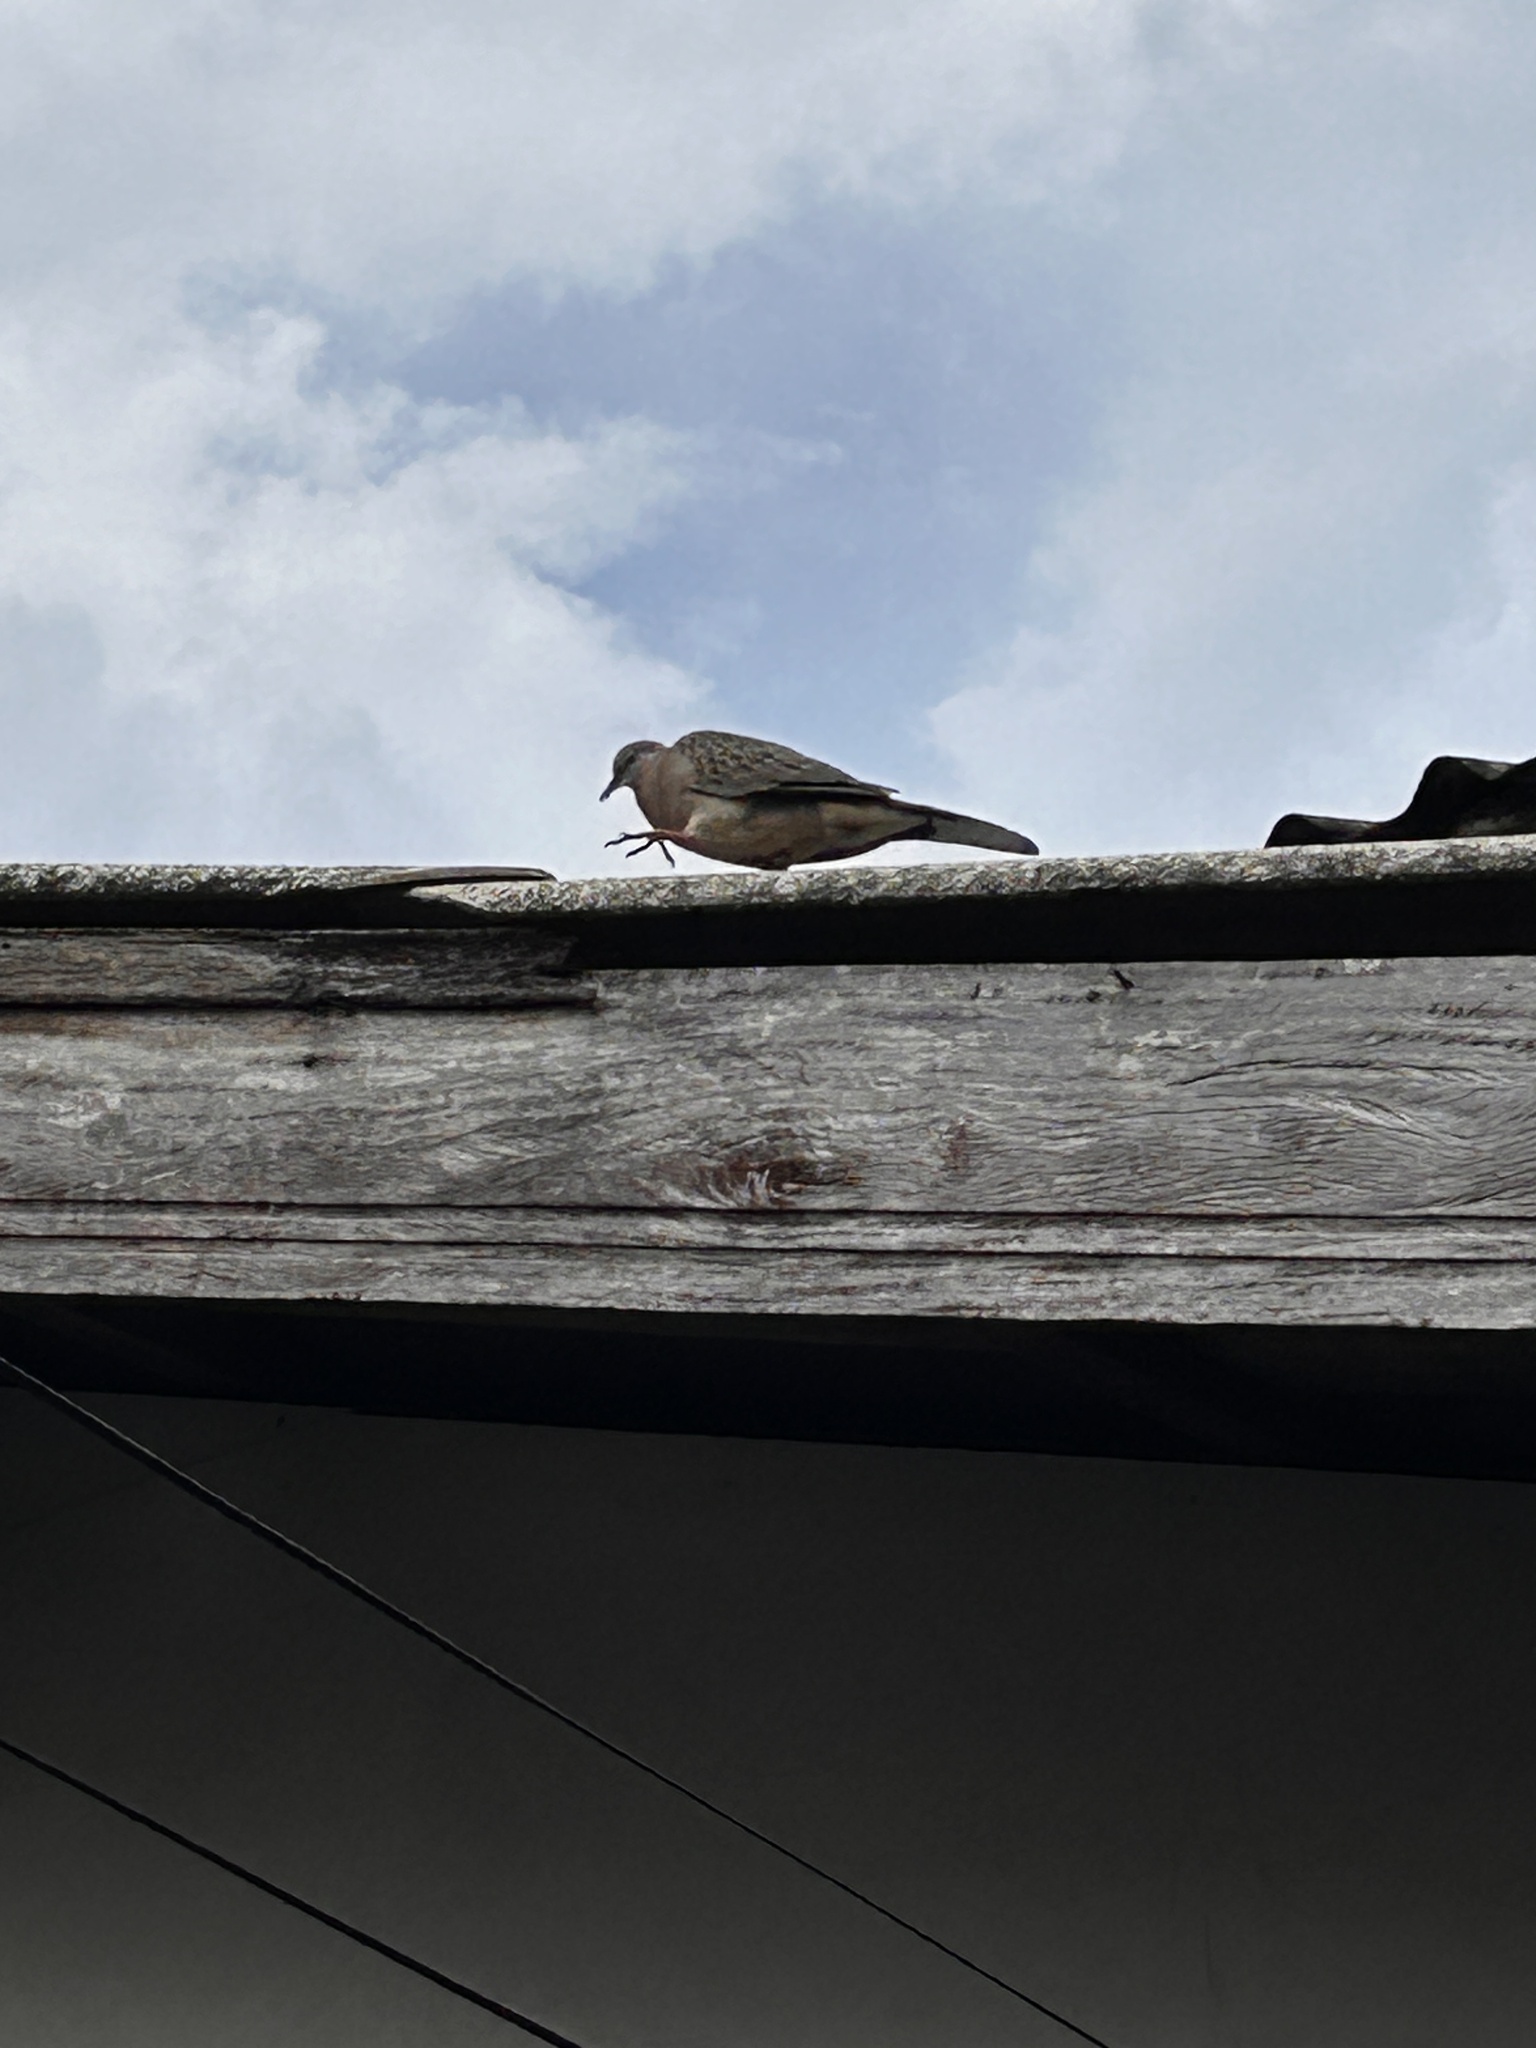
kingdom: Animalia
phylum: Chordata
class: Aves
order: Columbiformes
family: Columbidae
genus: Spilopelia
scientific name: Spilopelia chinensis
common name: Spotted dove
